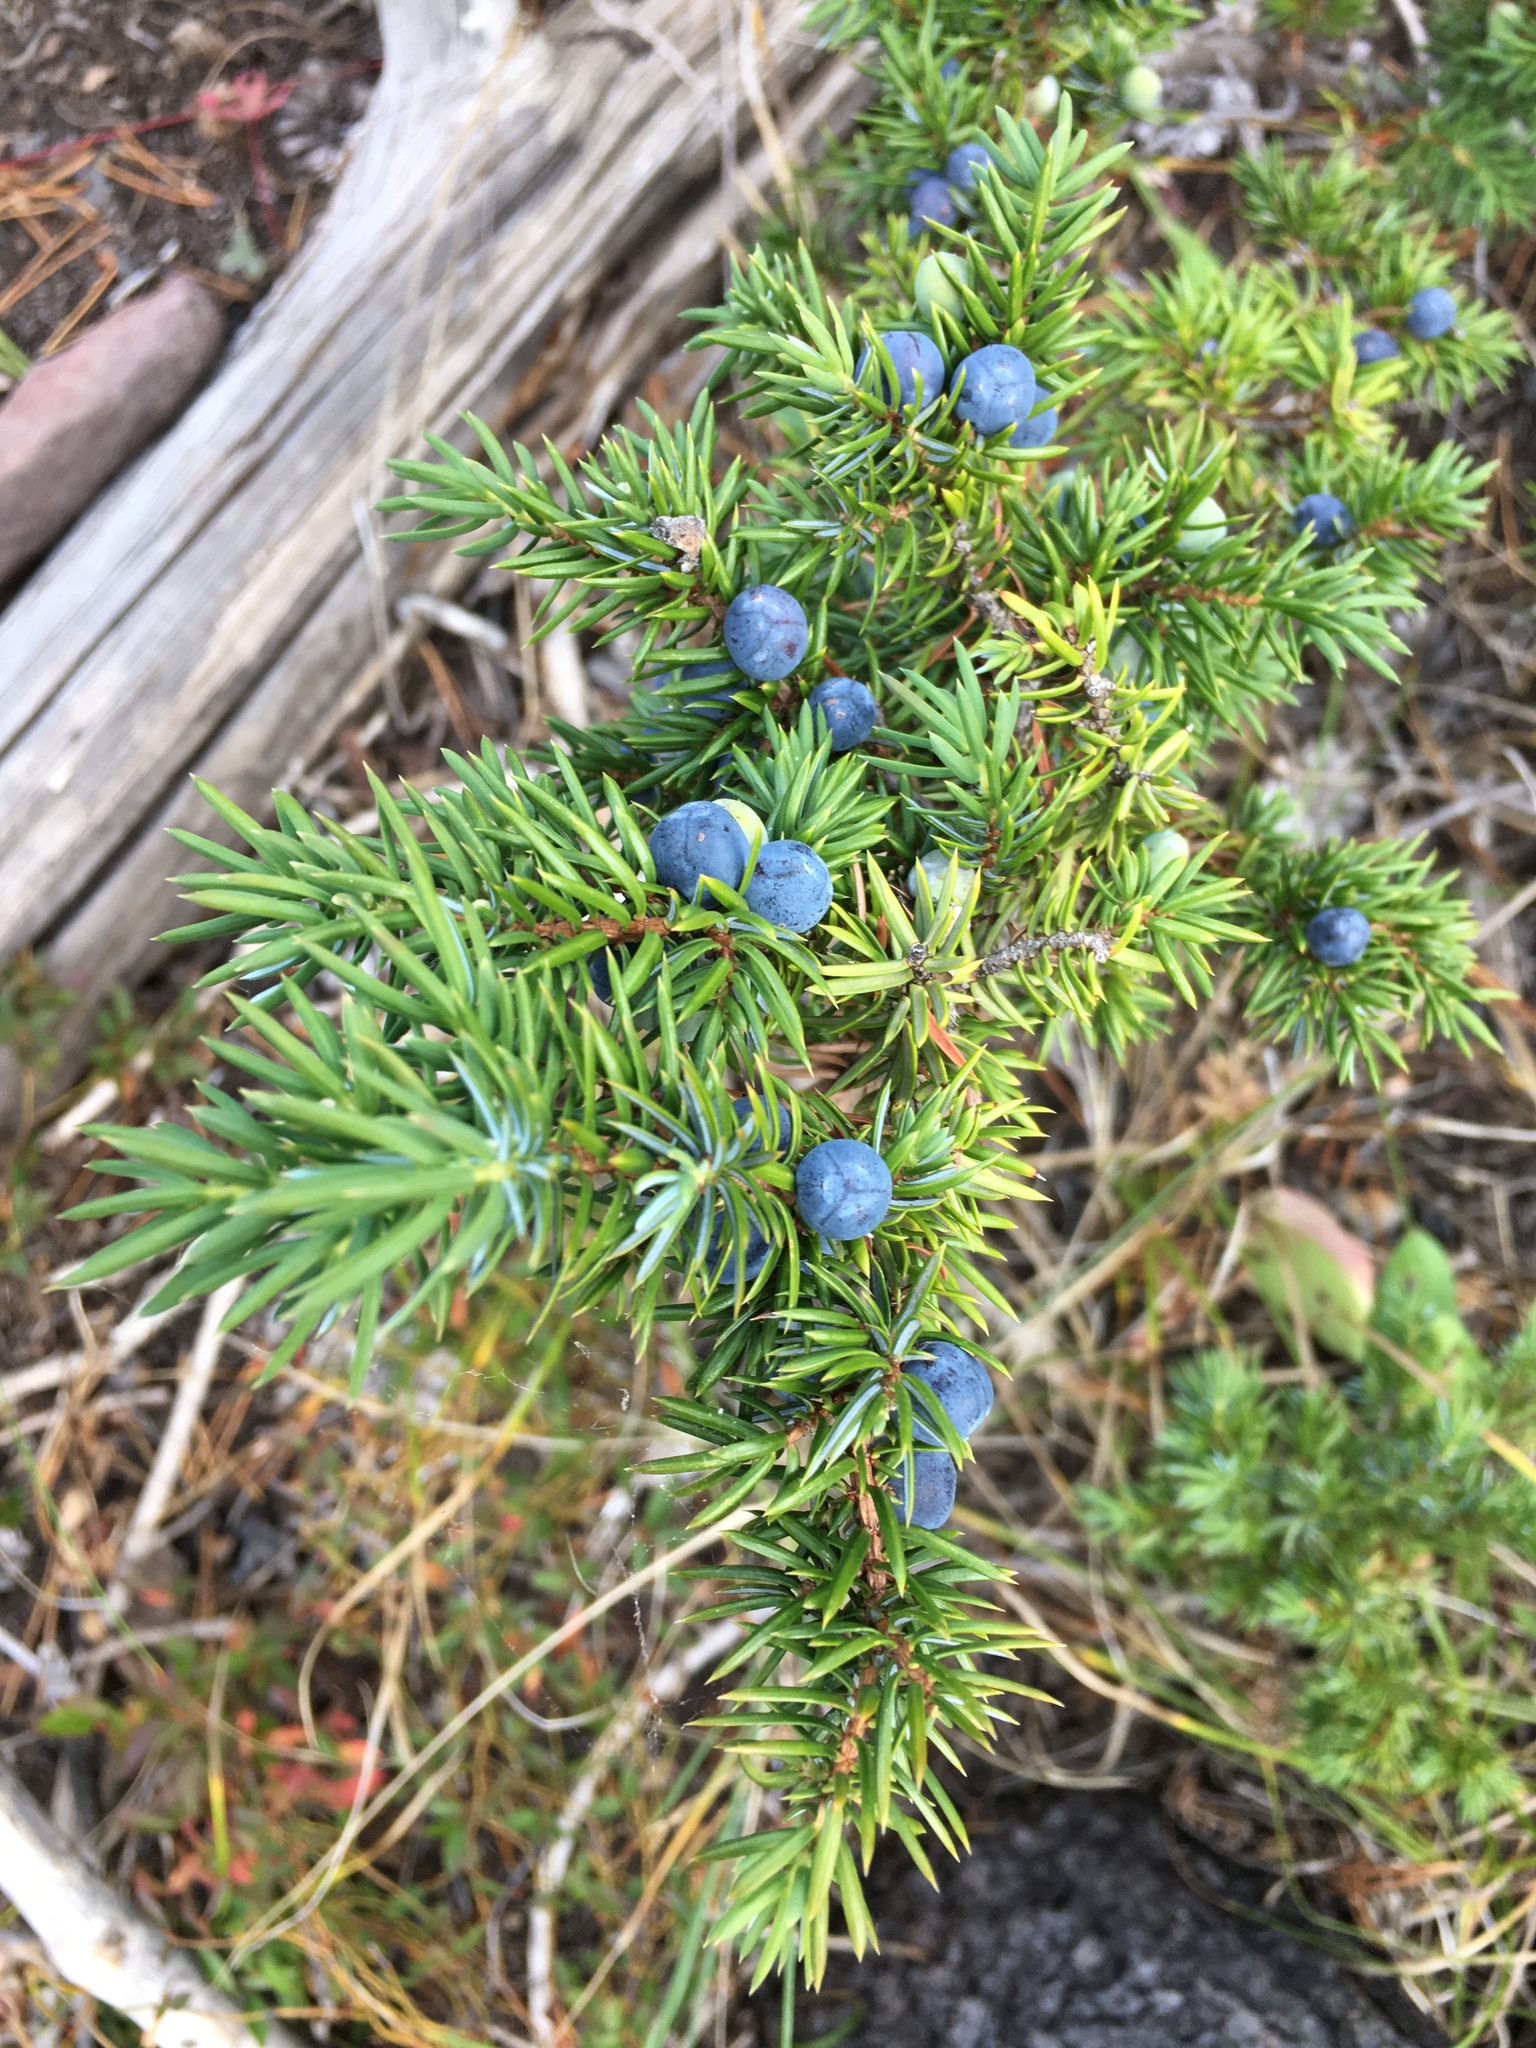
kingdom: Plantae
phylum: Tracheophyta
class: Pinopsida
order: Pinales
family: Cupressaceae
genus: Juniperus
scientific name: Juniperus communis
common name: Common juniper
